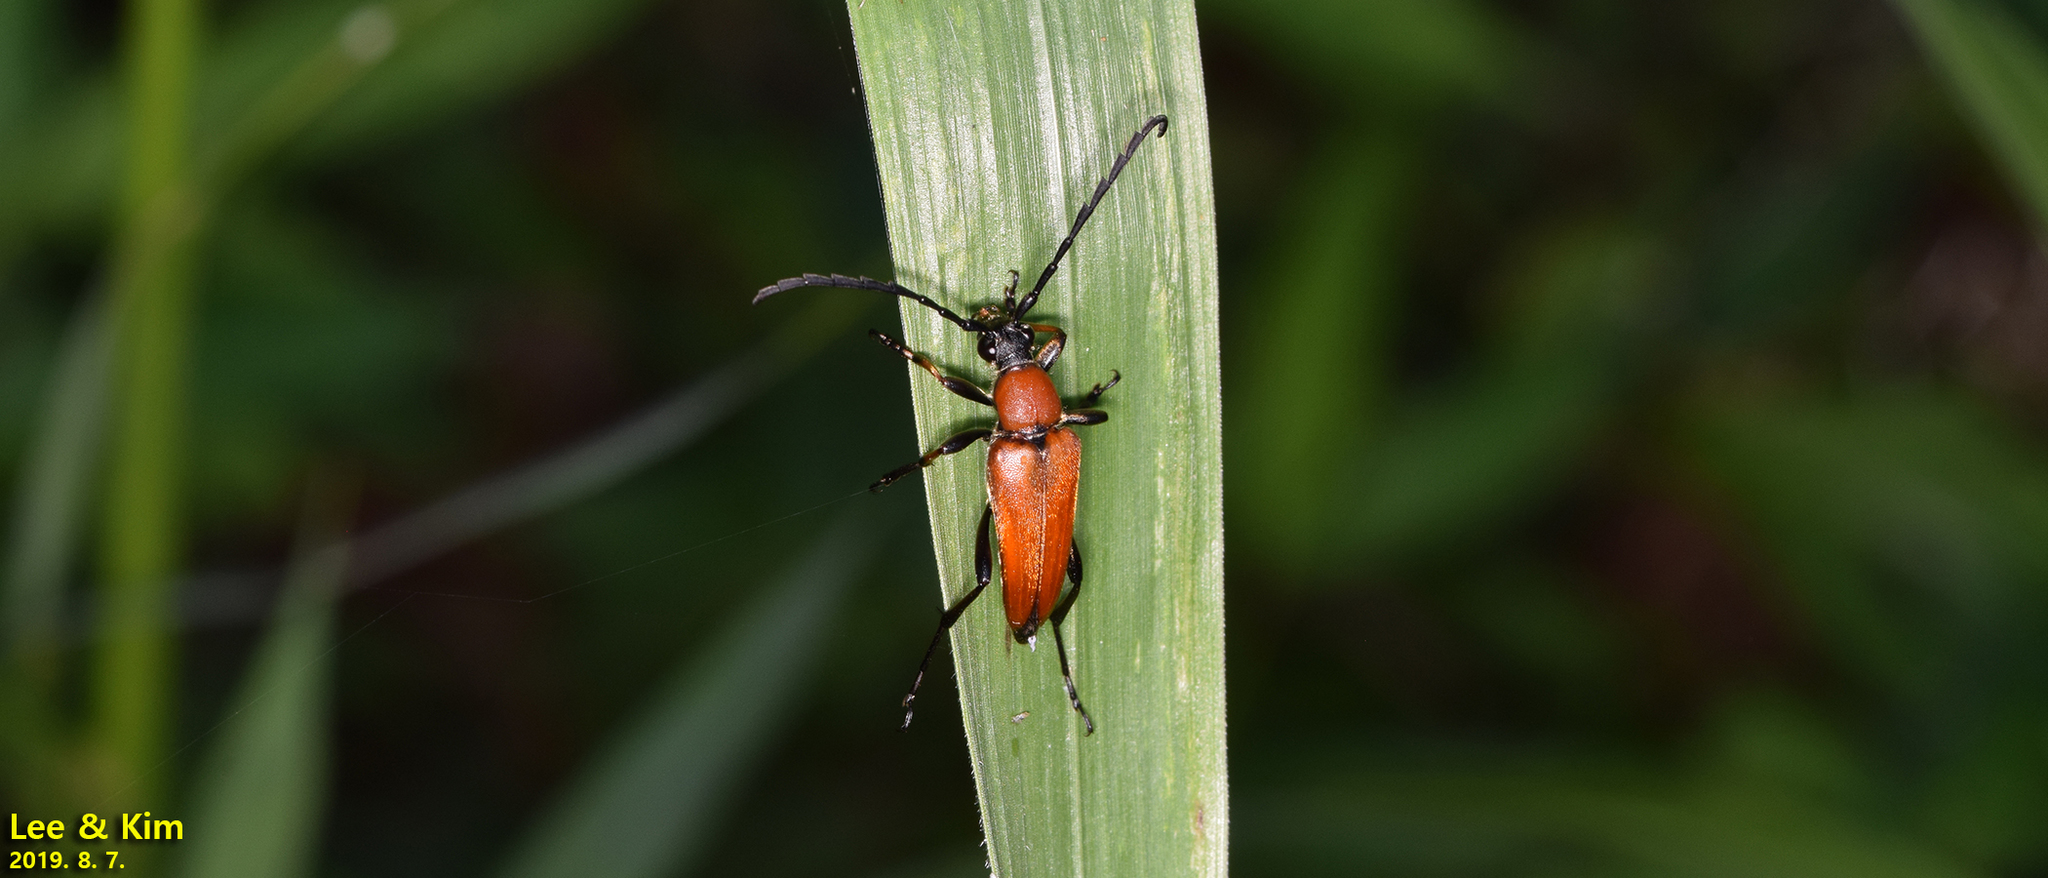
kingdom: Animalia
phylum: Arthropoda
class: Insecta
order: Coleoptera
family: Cerambycidae
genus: Stictoleptura
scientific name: Stictoleptura dichroa
